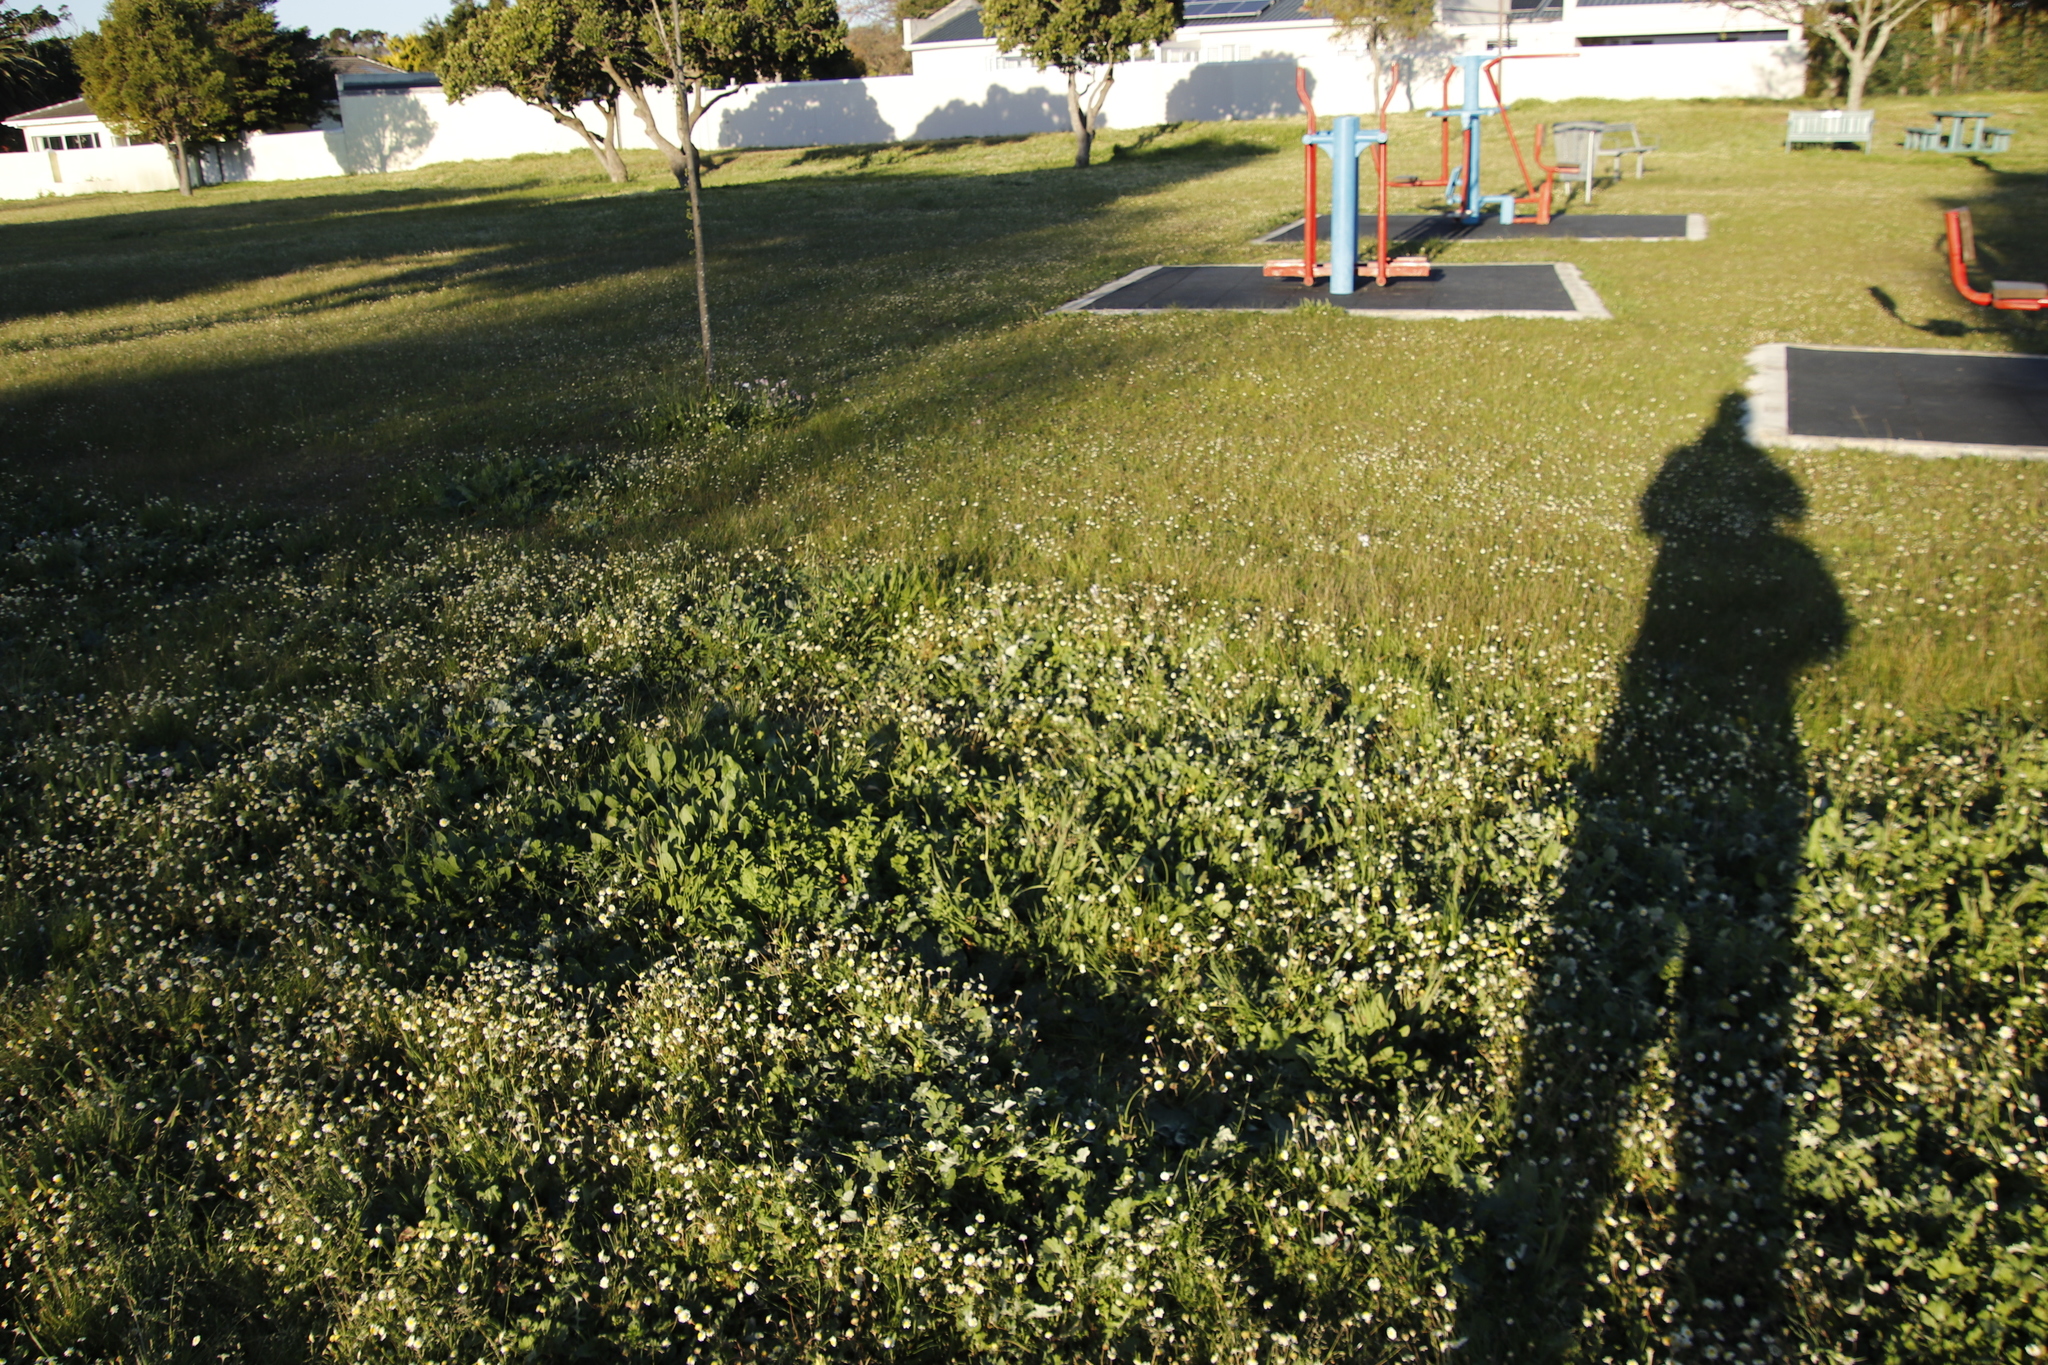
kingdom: Plantae
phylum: Tracheophyta
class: Magnoliopsida
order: Asterales
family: Asteraceae
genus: Cotula
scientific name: Cotula turbinata
